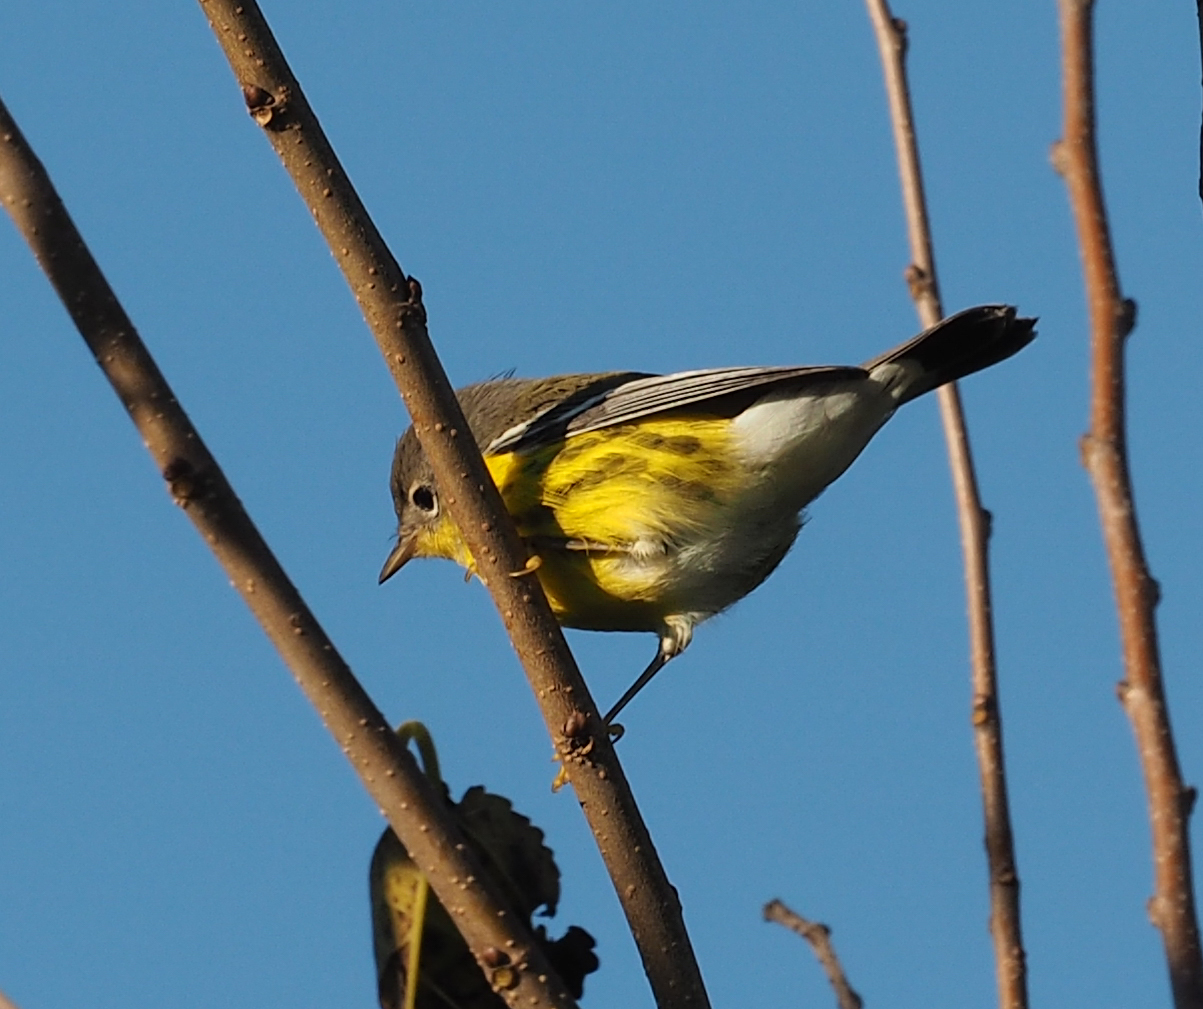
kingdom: Animalia
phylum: Chordata
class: Aves
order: Passeriformes
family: Parulidae
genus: Setophaga
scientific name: Setophaga magnolia
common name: Magnolia warbler
